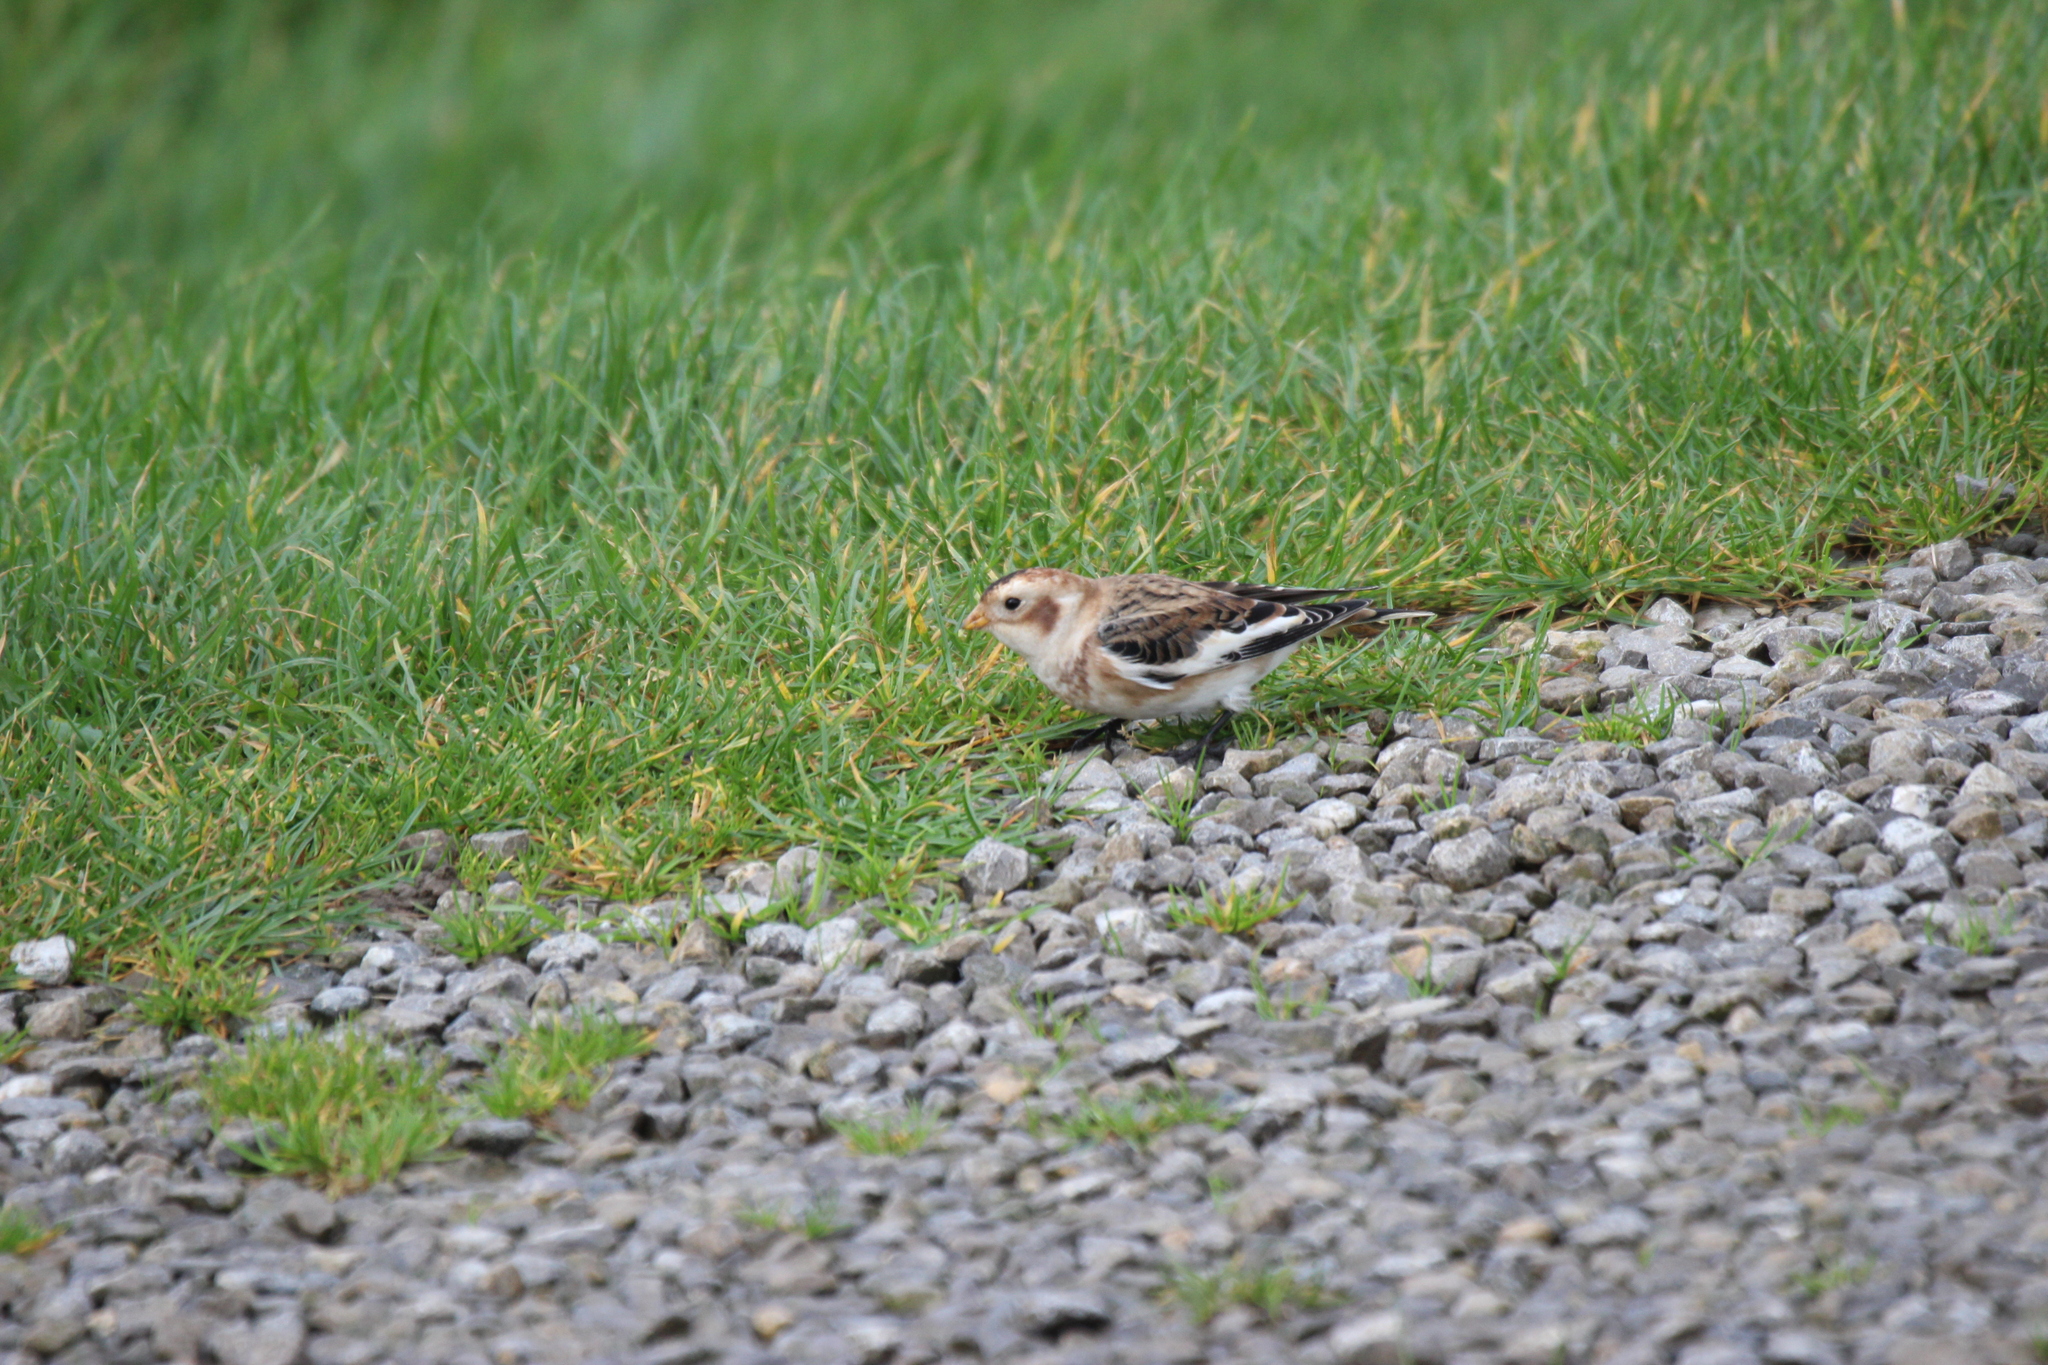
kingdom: Animalia
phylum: Chordata
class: Aves
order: Passeriformes
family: Calcariidae
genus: Plectrophenax
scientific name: Plectrophenax nivalis
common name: Snow bunting
